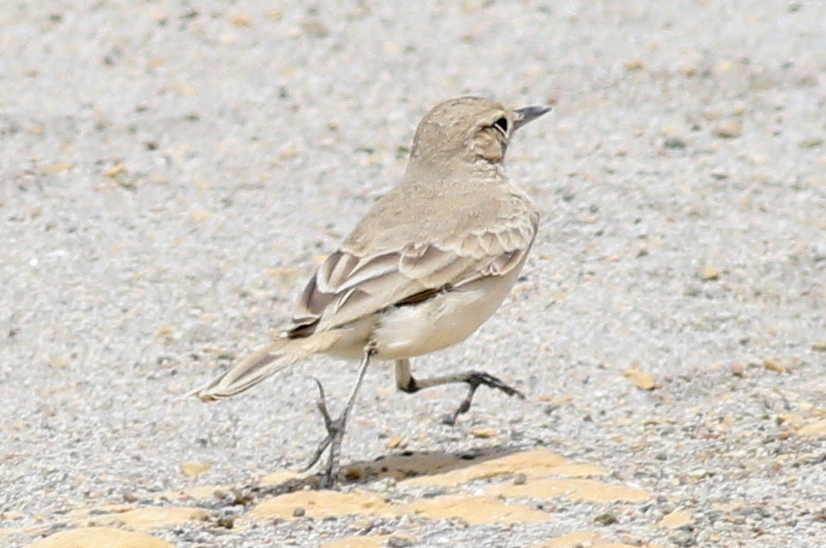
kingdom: Animalia
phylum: Chordata
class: Aves
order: Passeriformes
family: Furnariidae
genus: Geositta
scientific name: Geositta peruviana
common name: Coastal miner
